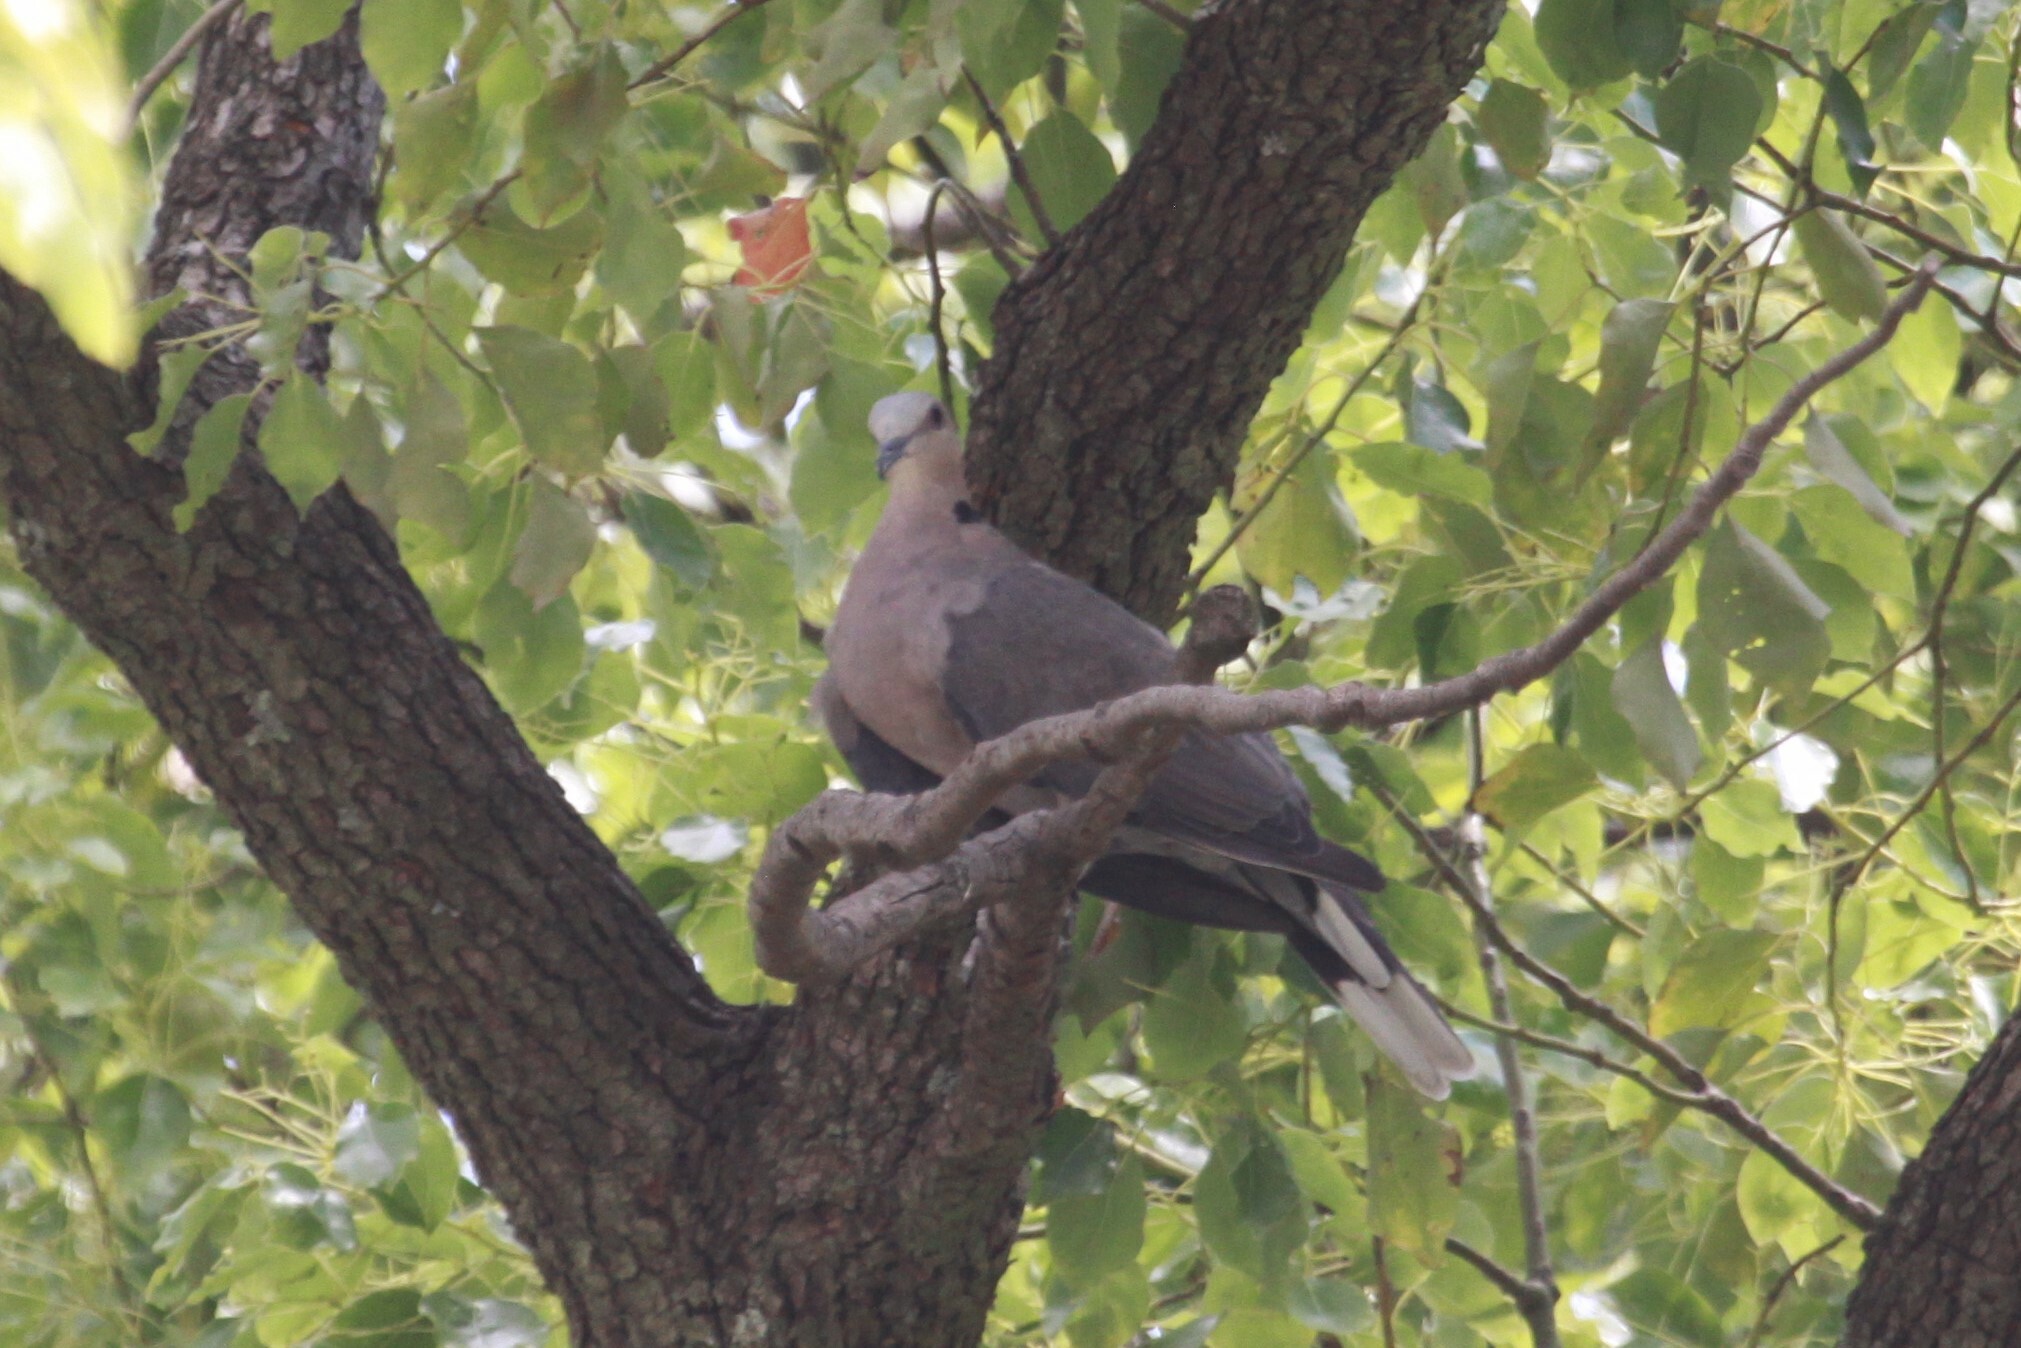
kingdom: Animalia
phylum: Chordata
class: Aves
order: Columbiformes
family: Columbidae
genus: Streptopelia
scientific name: Streptopelia semitorquata
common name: Red-eyed dove
